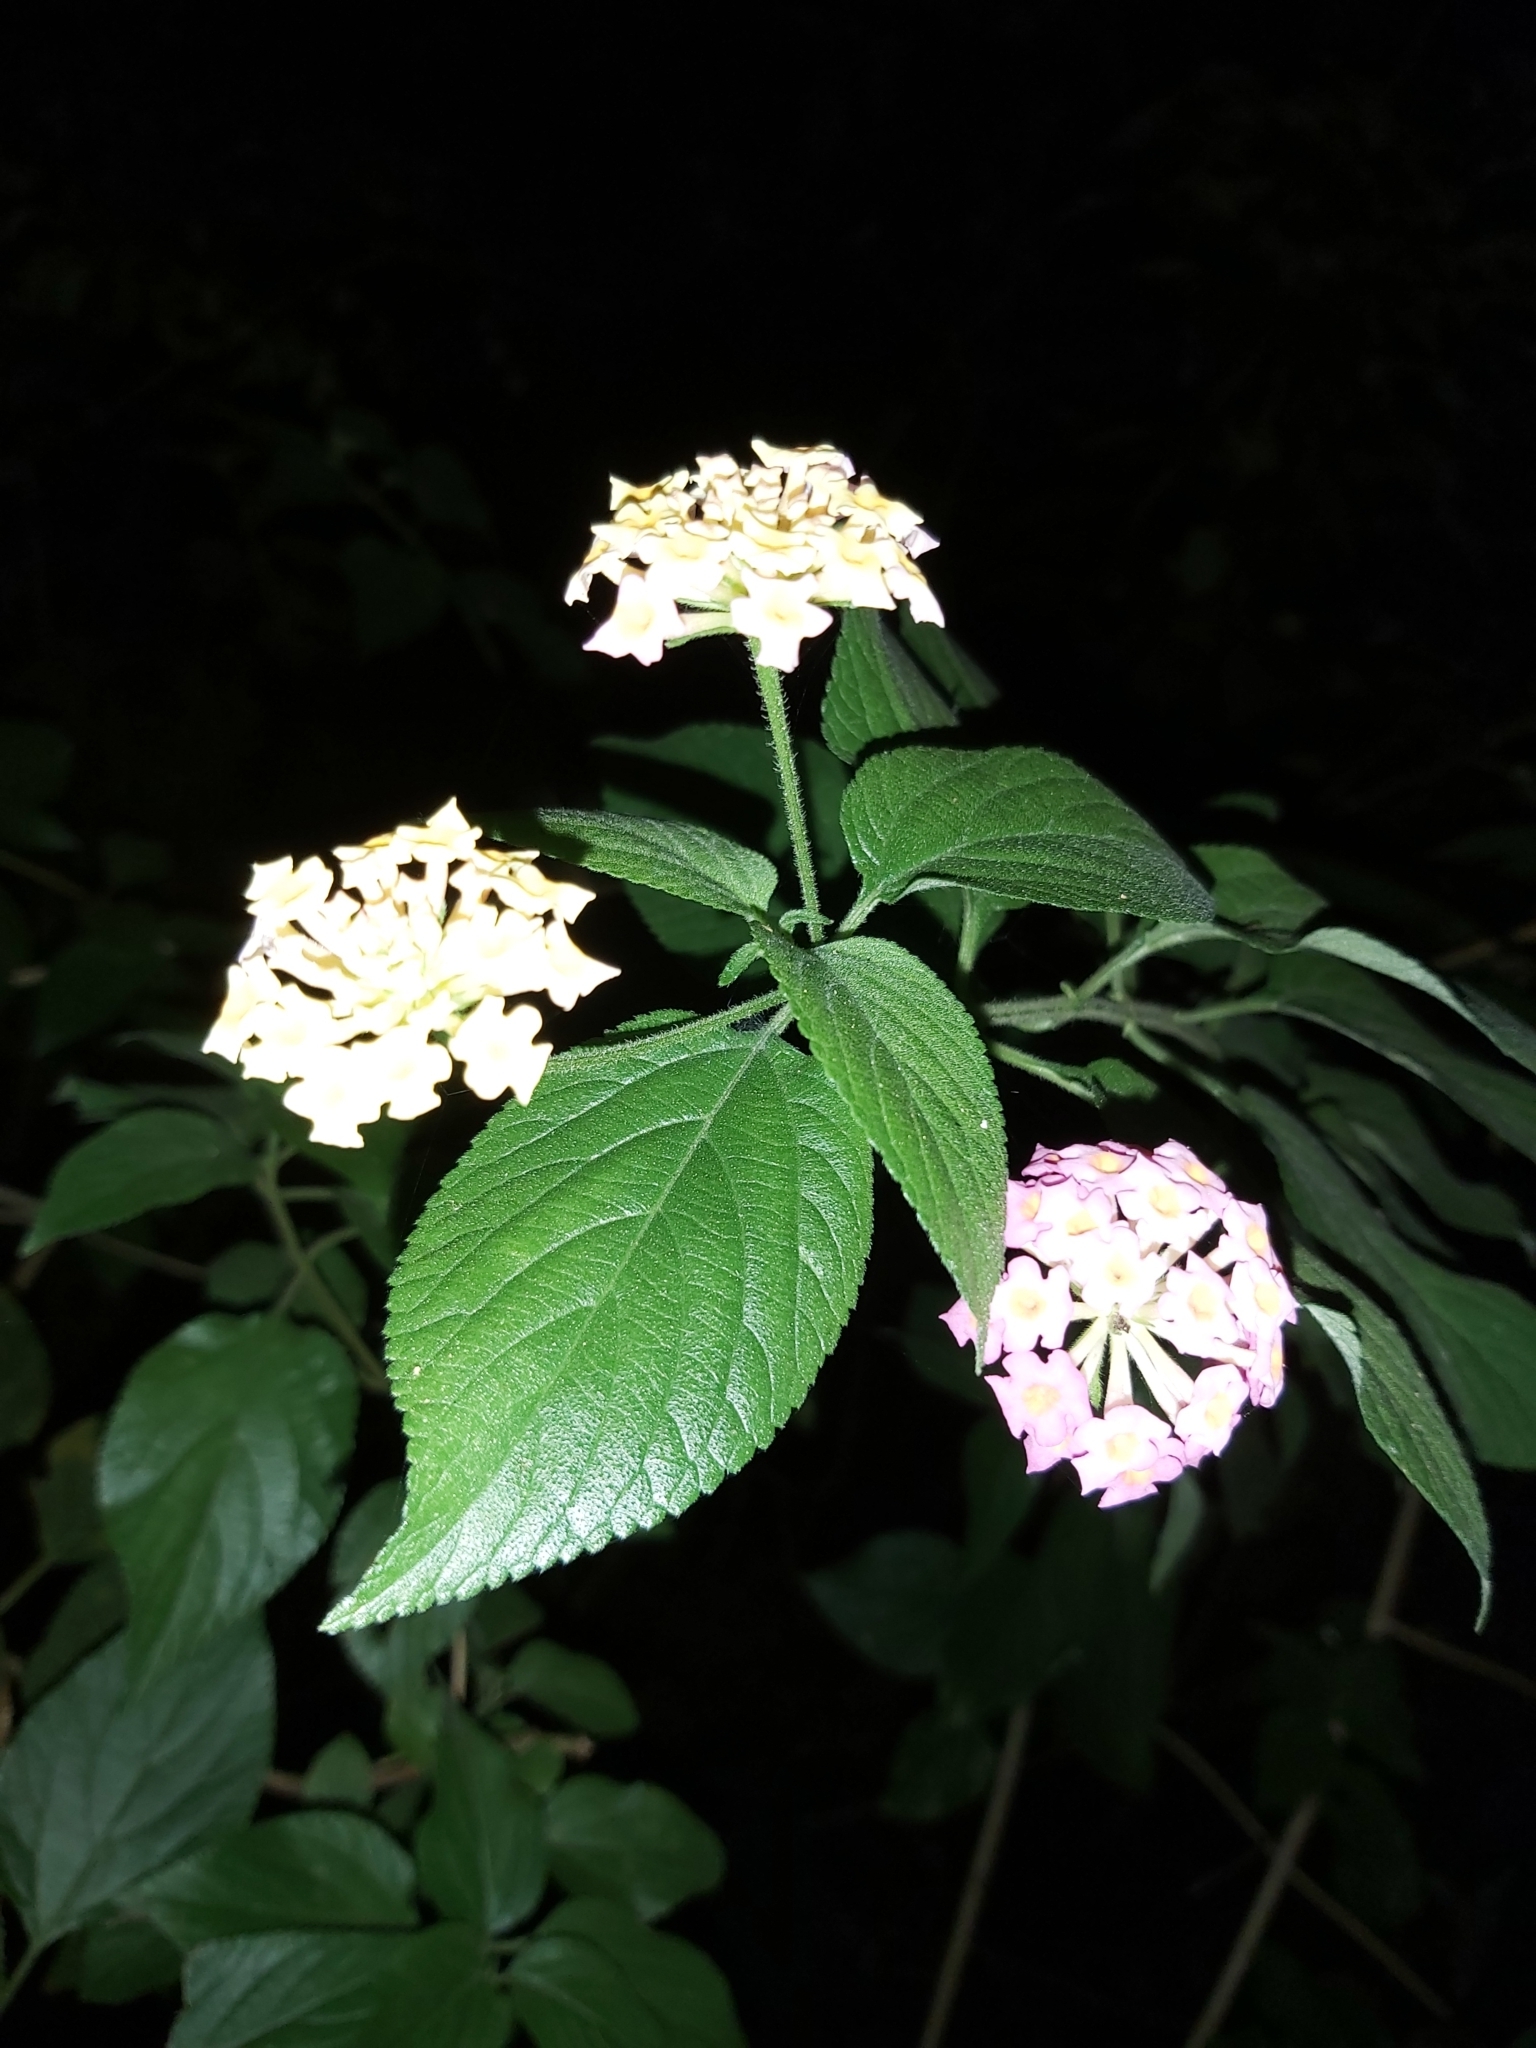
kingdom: Plantae
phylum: Tracheophyta
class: Magnoliopsida
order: Lamiales
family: Verbenaceae
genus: Lantana
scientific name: Lantana camara
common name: Lantana
